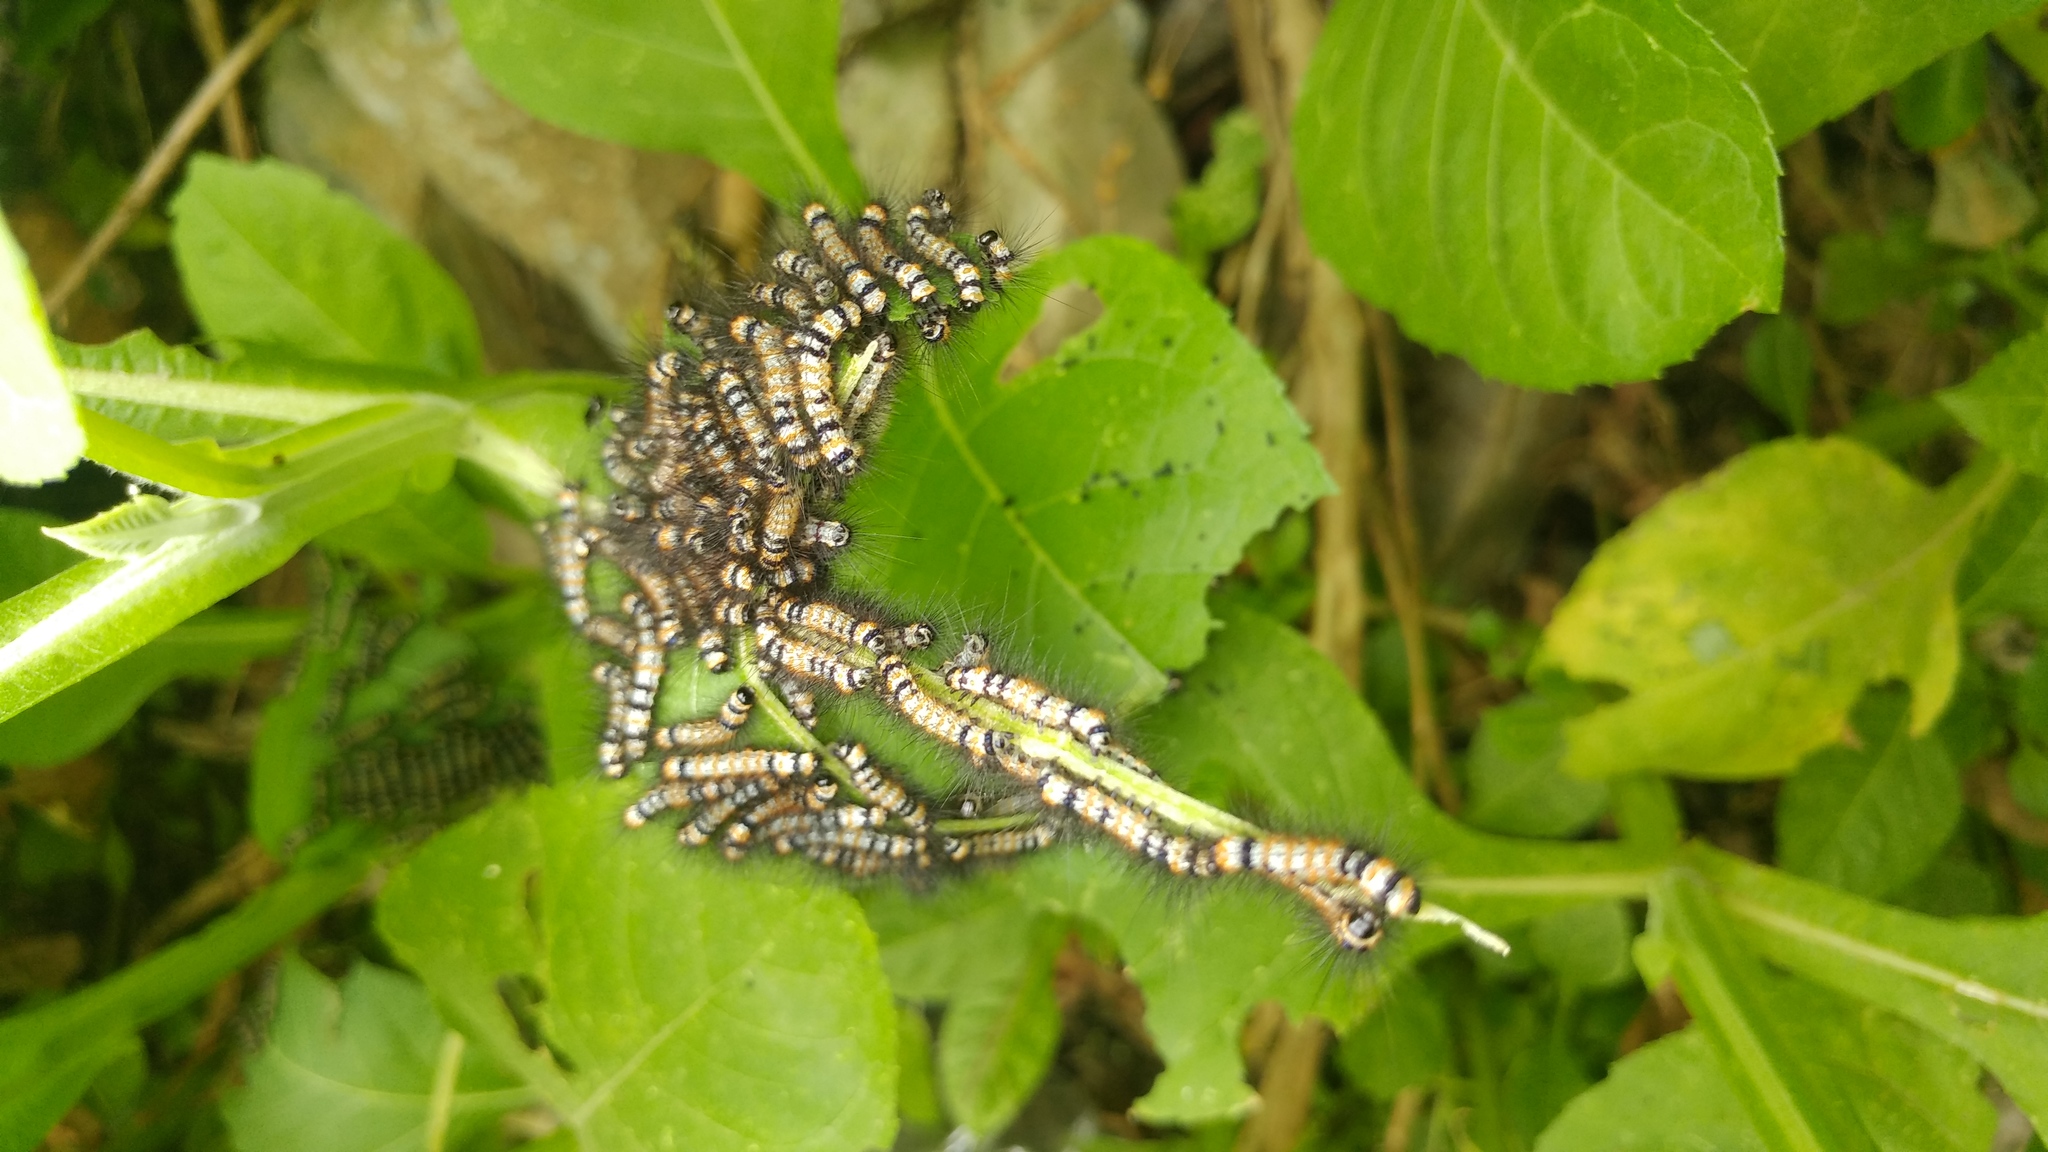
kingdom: Animalia
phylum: Arthropoda
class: Insecta
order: Lepidoptera
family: Erebidae
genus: Dysschema
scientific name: Dysschema leucophaea
